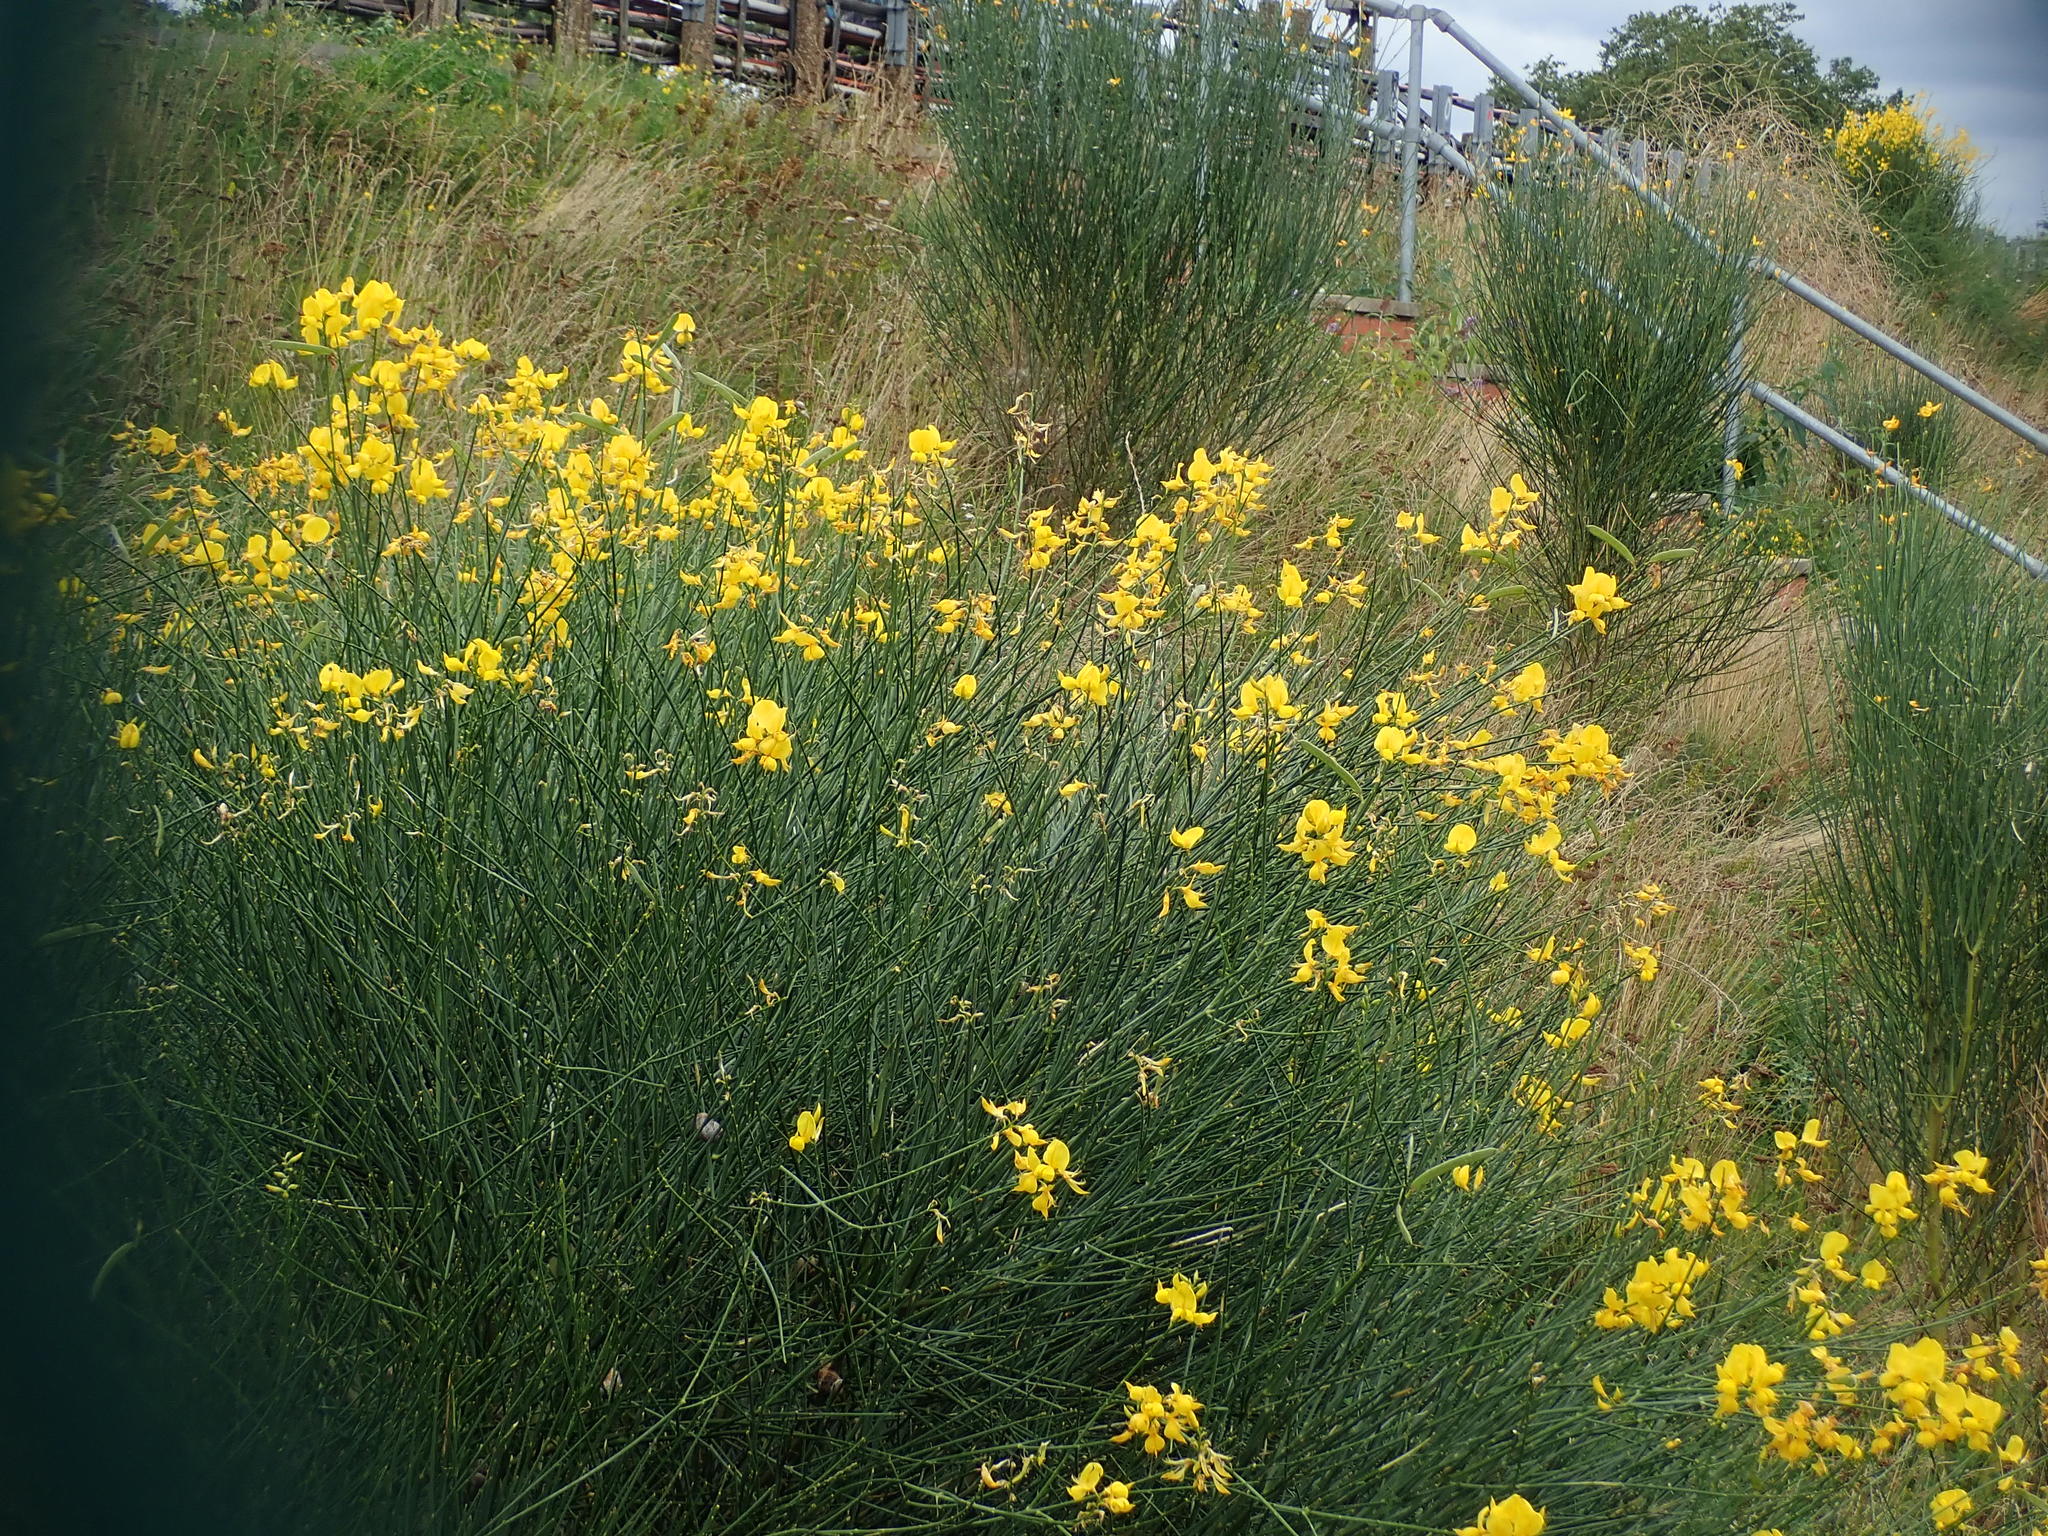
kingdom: Plantae
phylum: Tracheophyta
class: Magnoliopsida
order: Fabales
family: Fabaceae
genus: Spartium
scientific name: Spartium junceum
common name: Spanish broom
